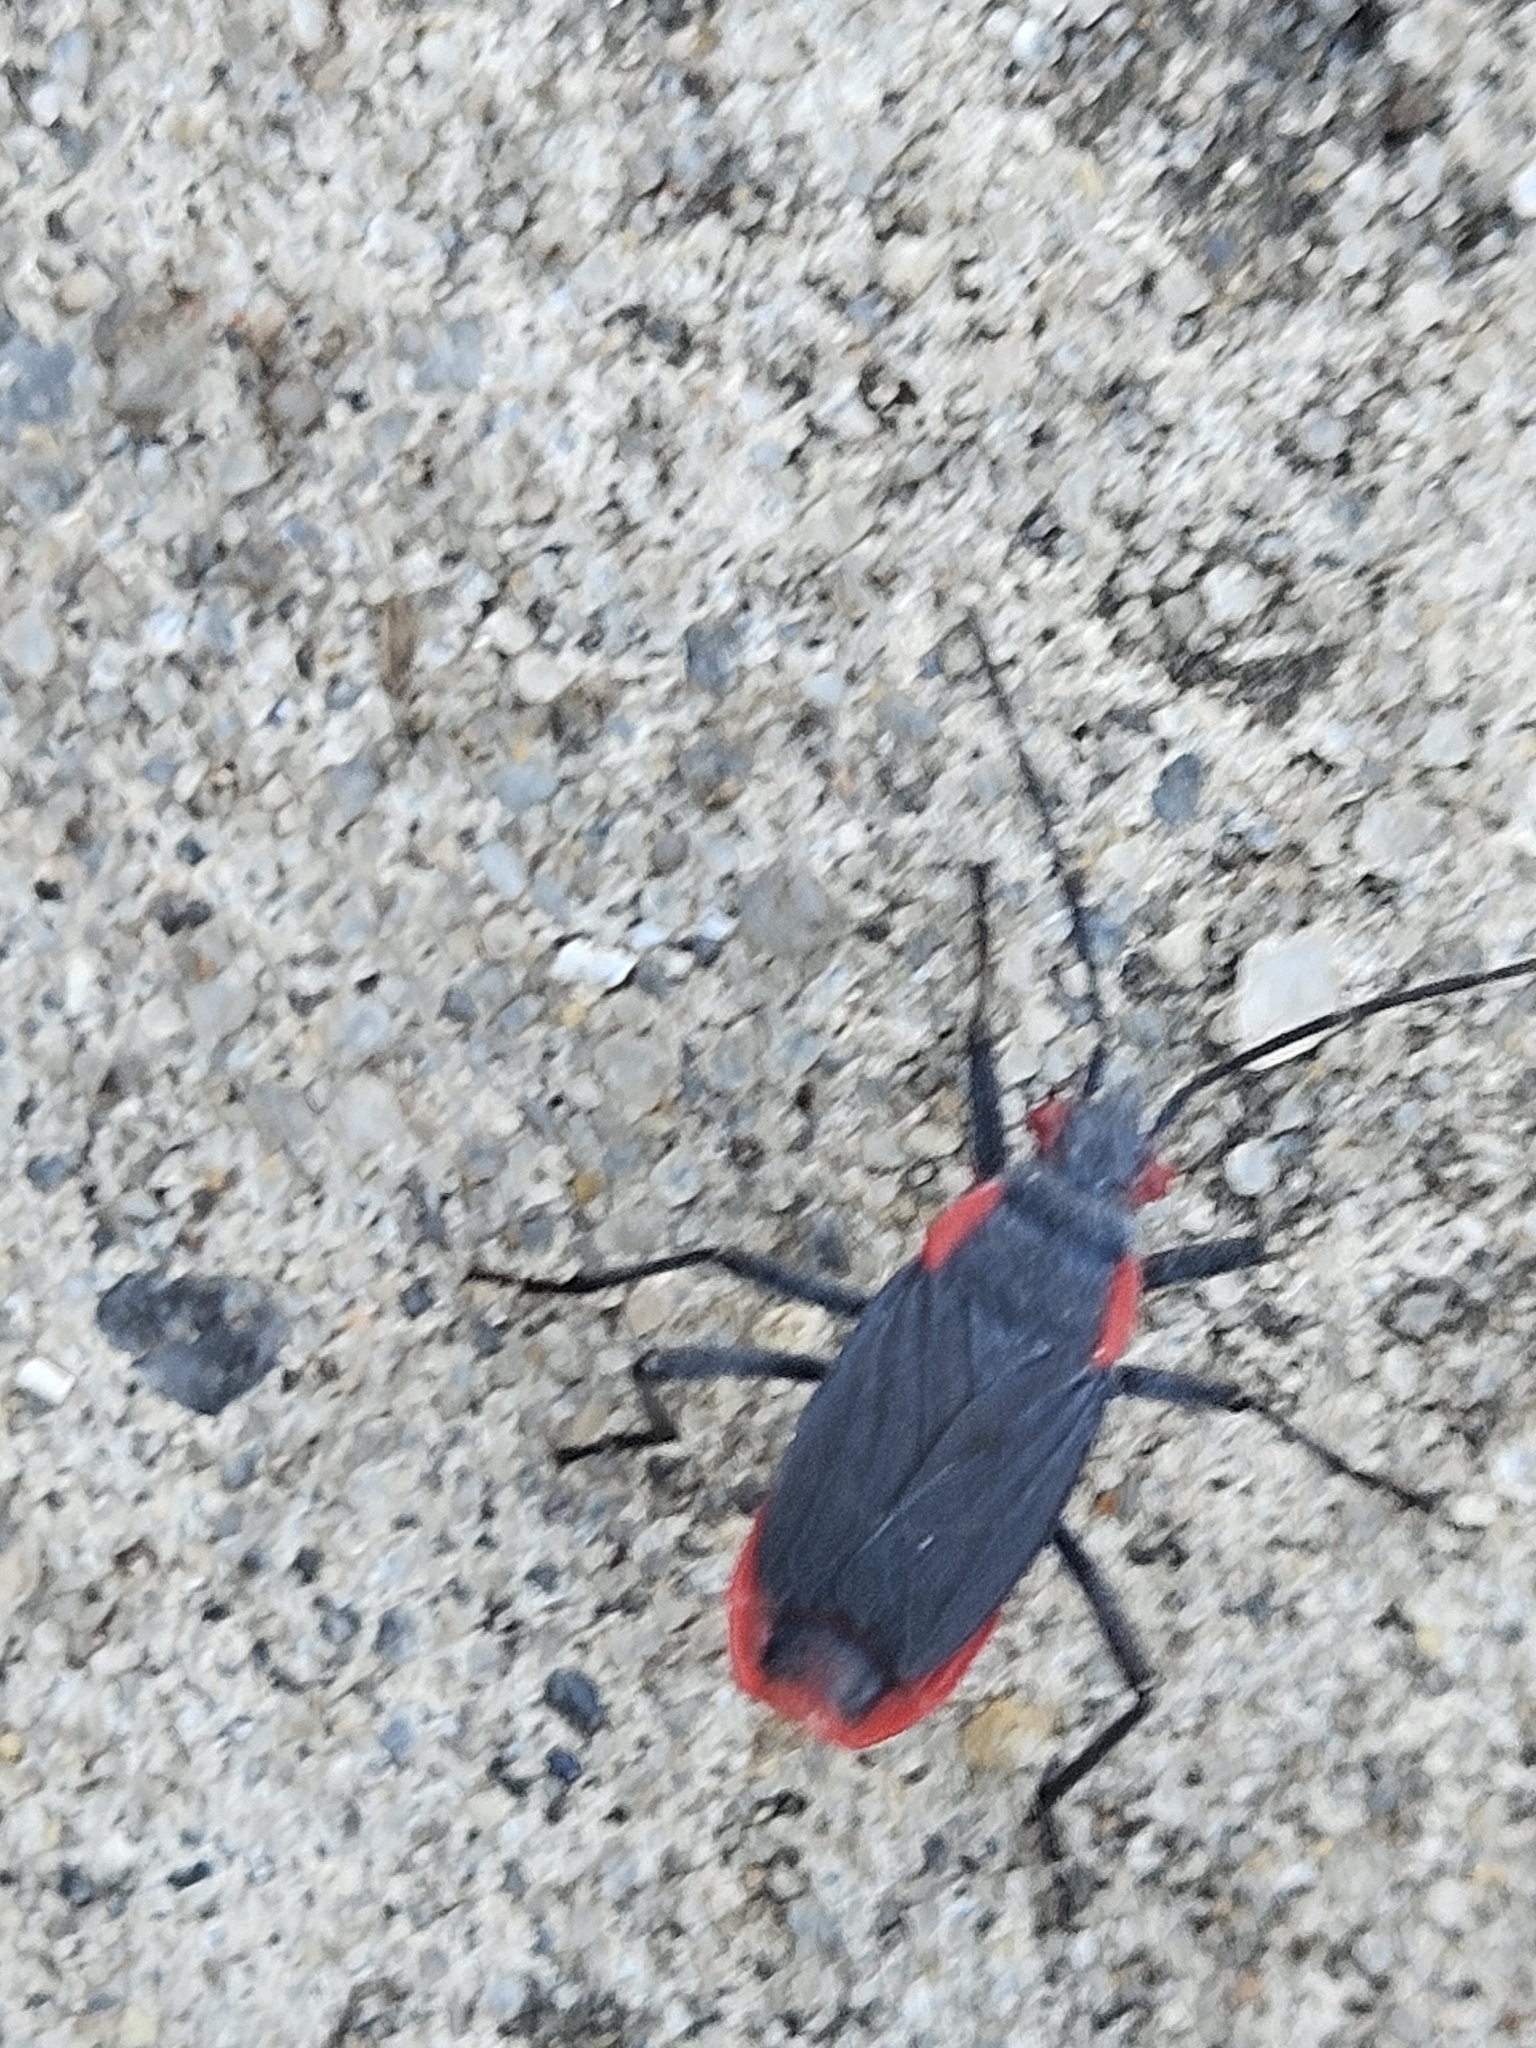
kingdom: Animalia
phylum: Arthropoda
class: Insecta
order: Hemiptera
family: Rhopalidae
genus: Jadera
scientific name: Jadera haematoloma
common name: Red-shouldered bug
